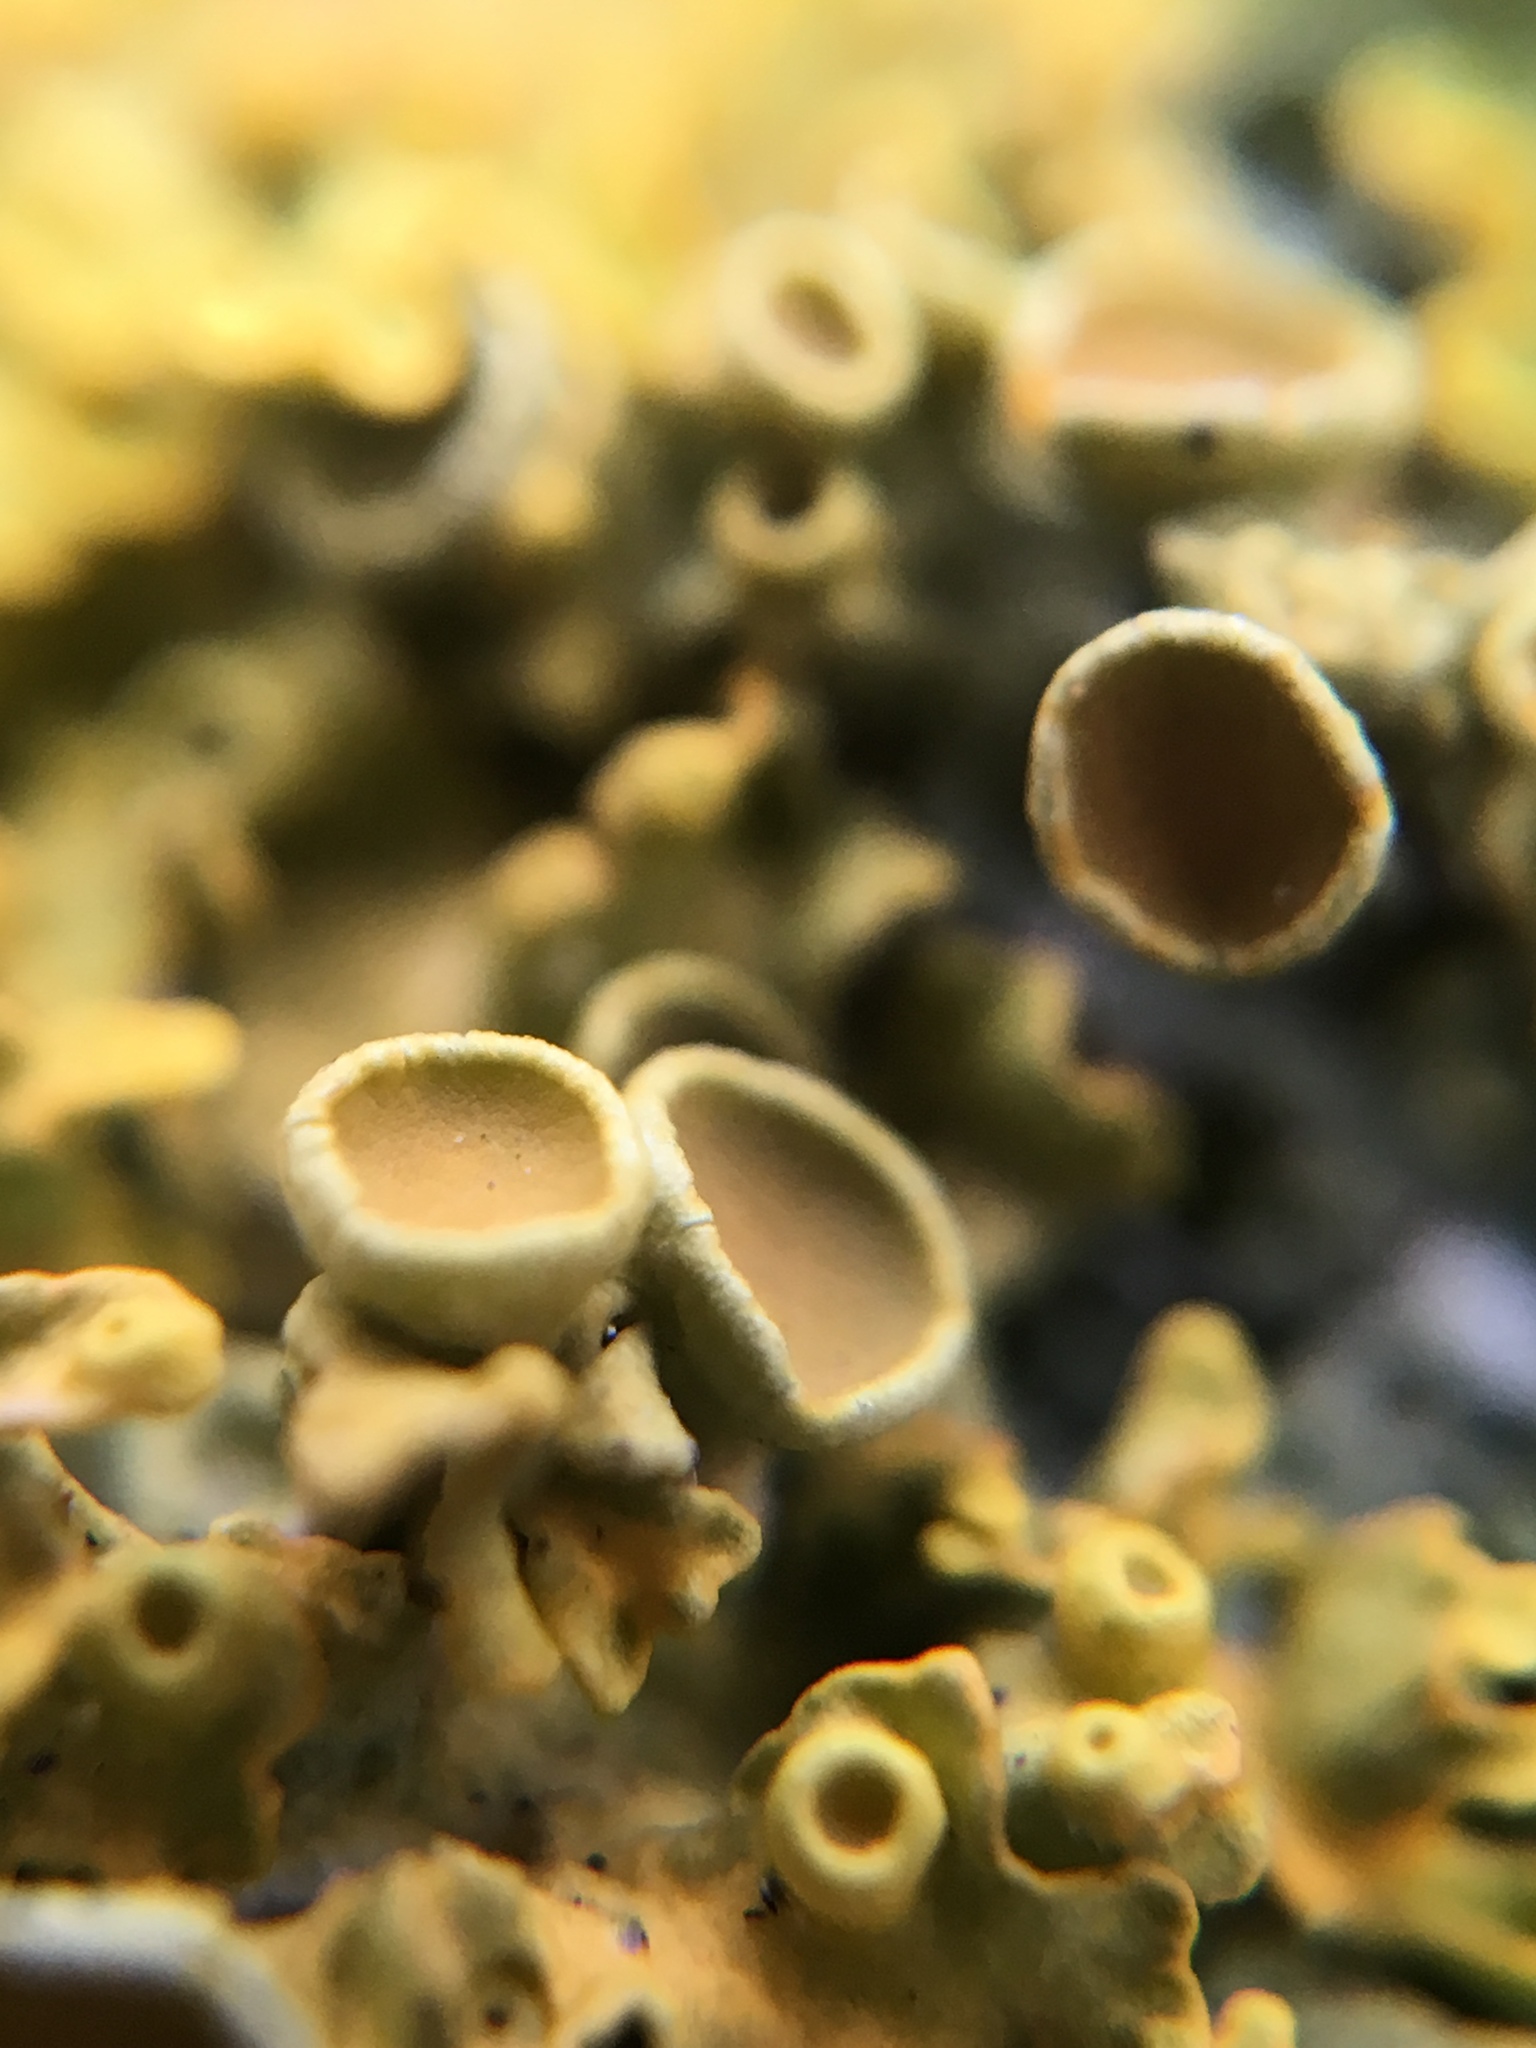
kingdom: Fungi
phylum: Ascomycota
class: Lecanoromycetes
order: Teloschistales
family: Teloschistaceae
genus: Xanthoria
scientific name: Xanthoria parietina
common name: Common orange lichen
